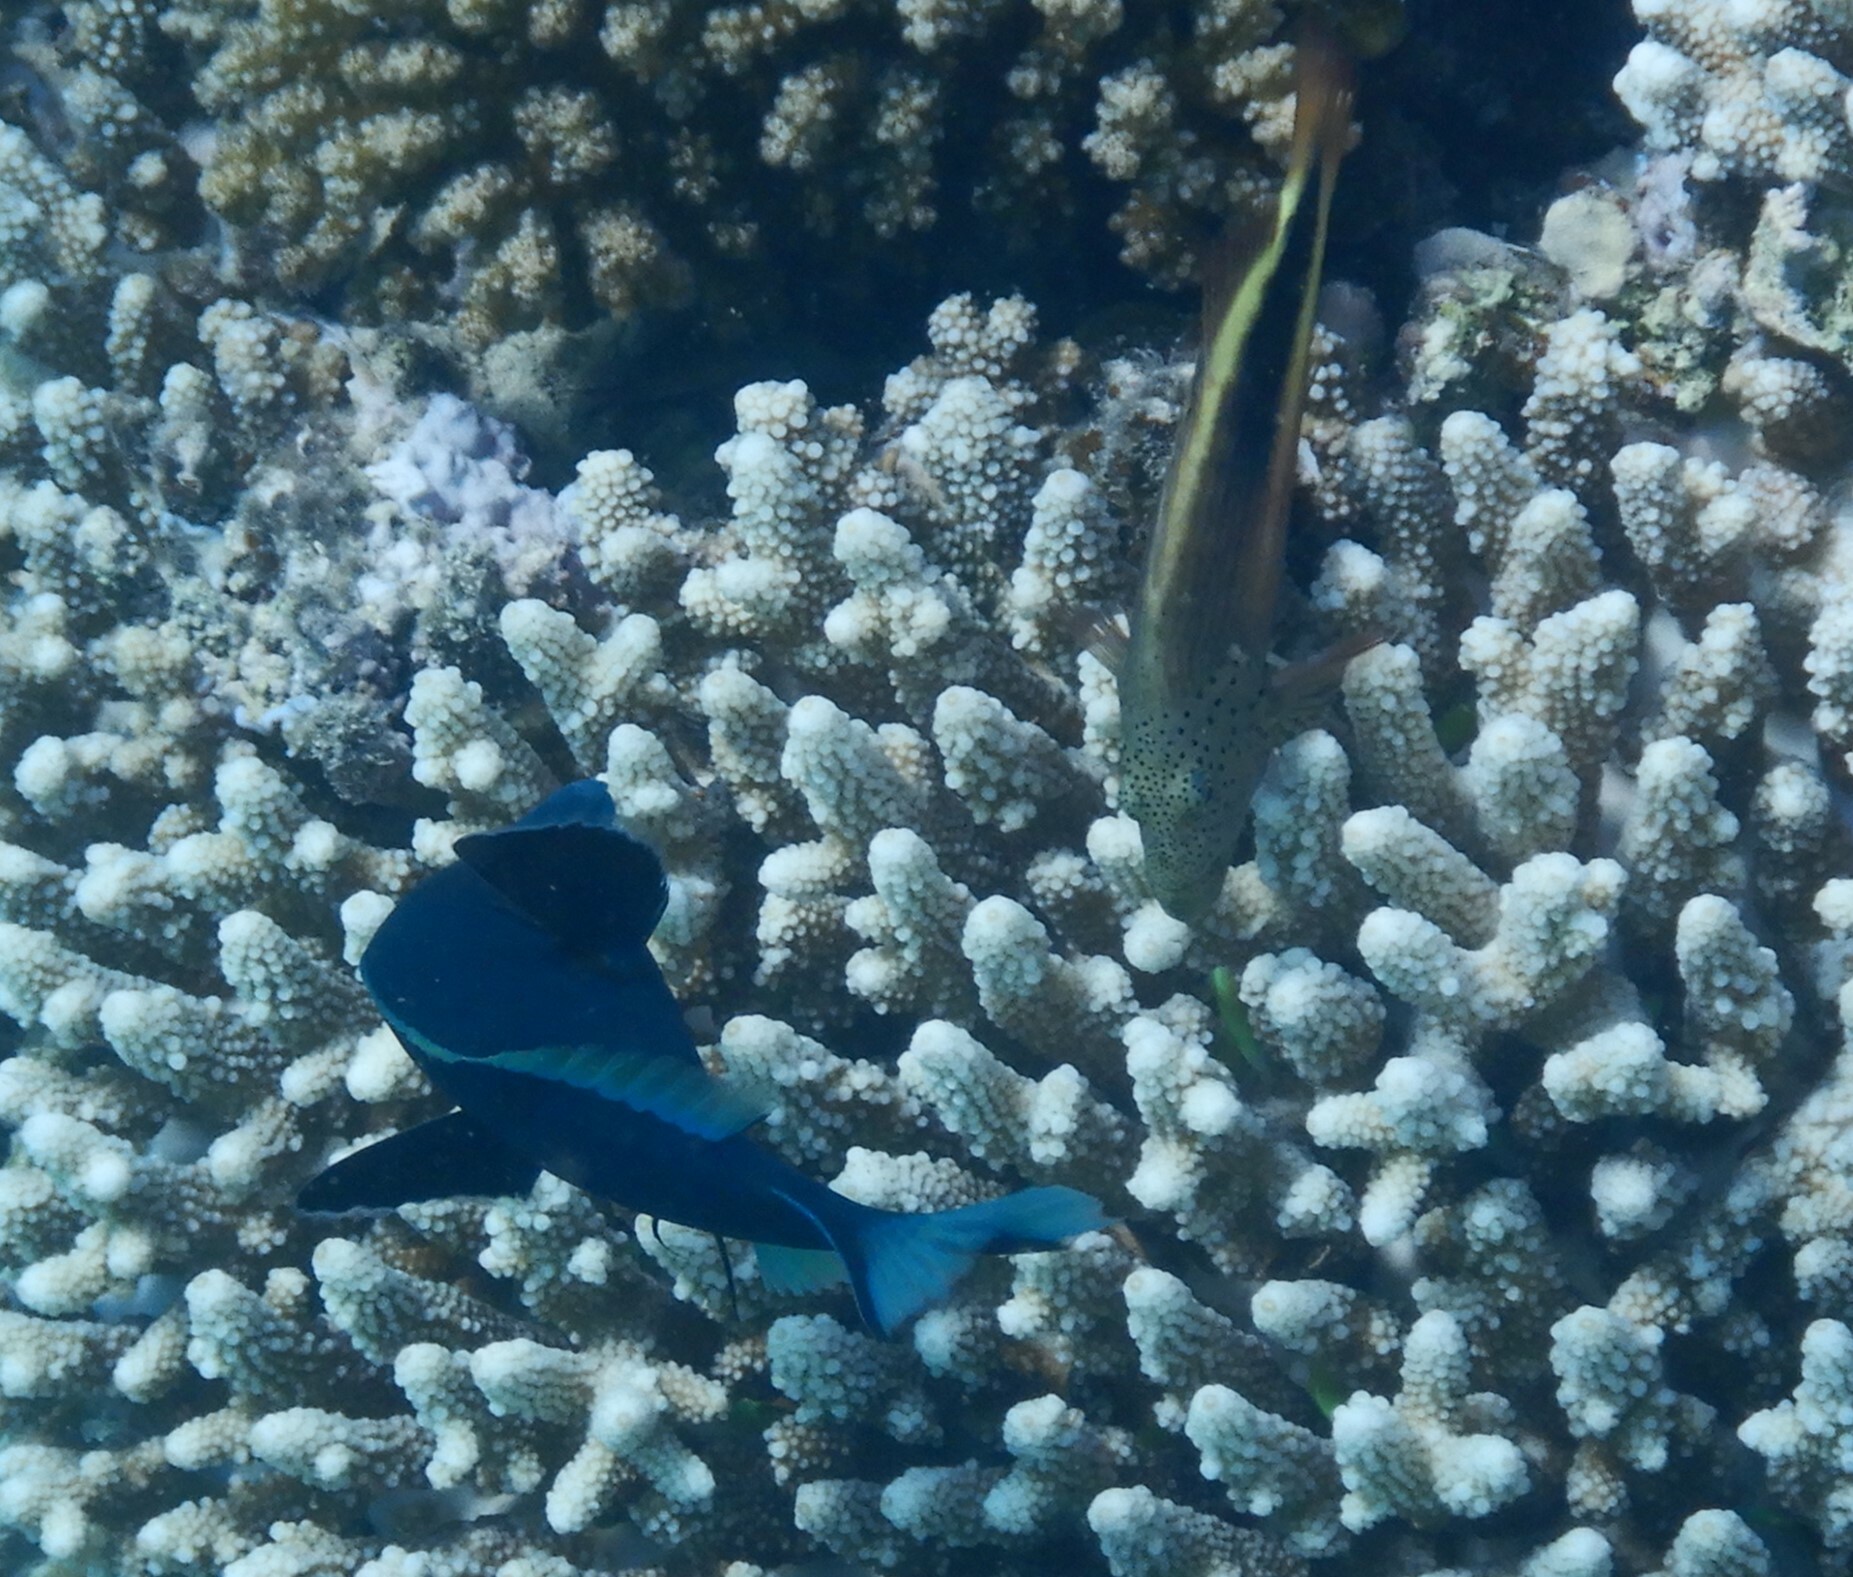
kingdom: Animalia
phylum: Chordata
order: Perciformes
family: Cirrhitidae
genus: Paracirrhites
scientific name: Paracirrhites forsteri
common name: Freckled hawkfish
